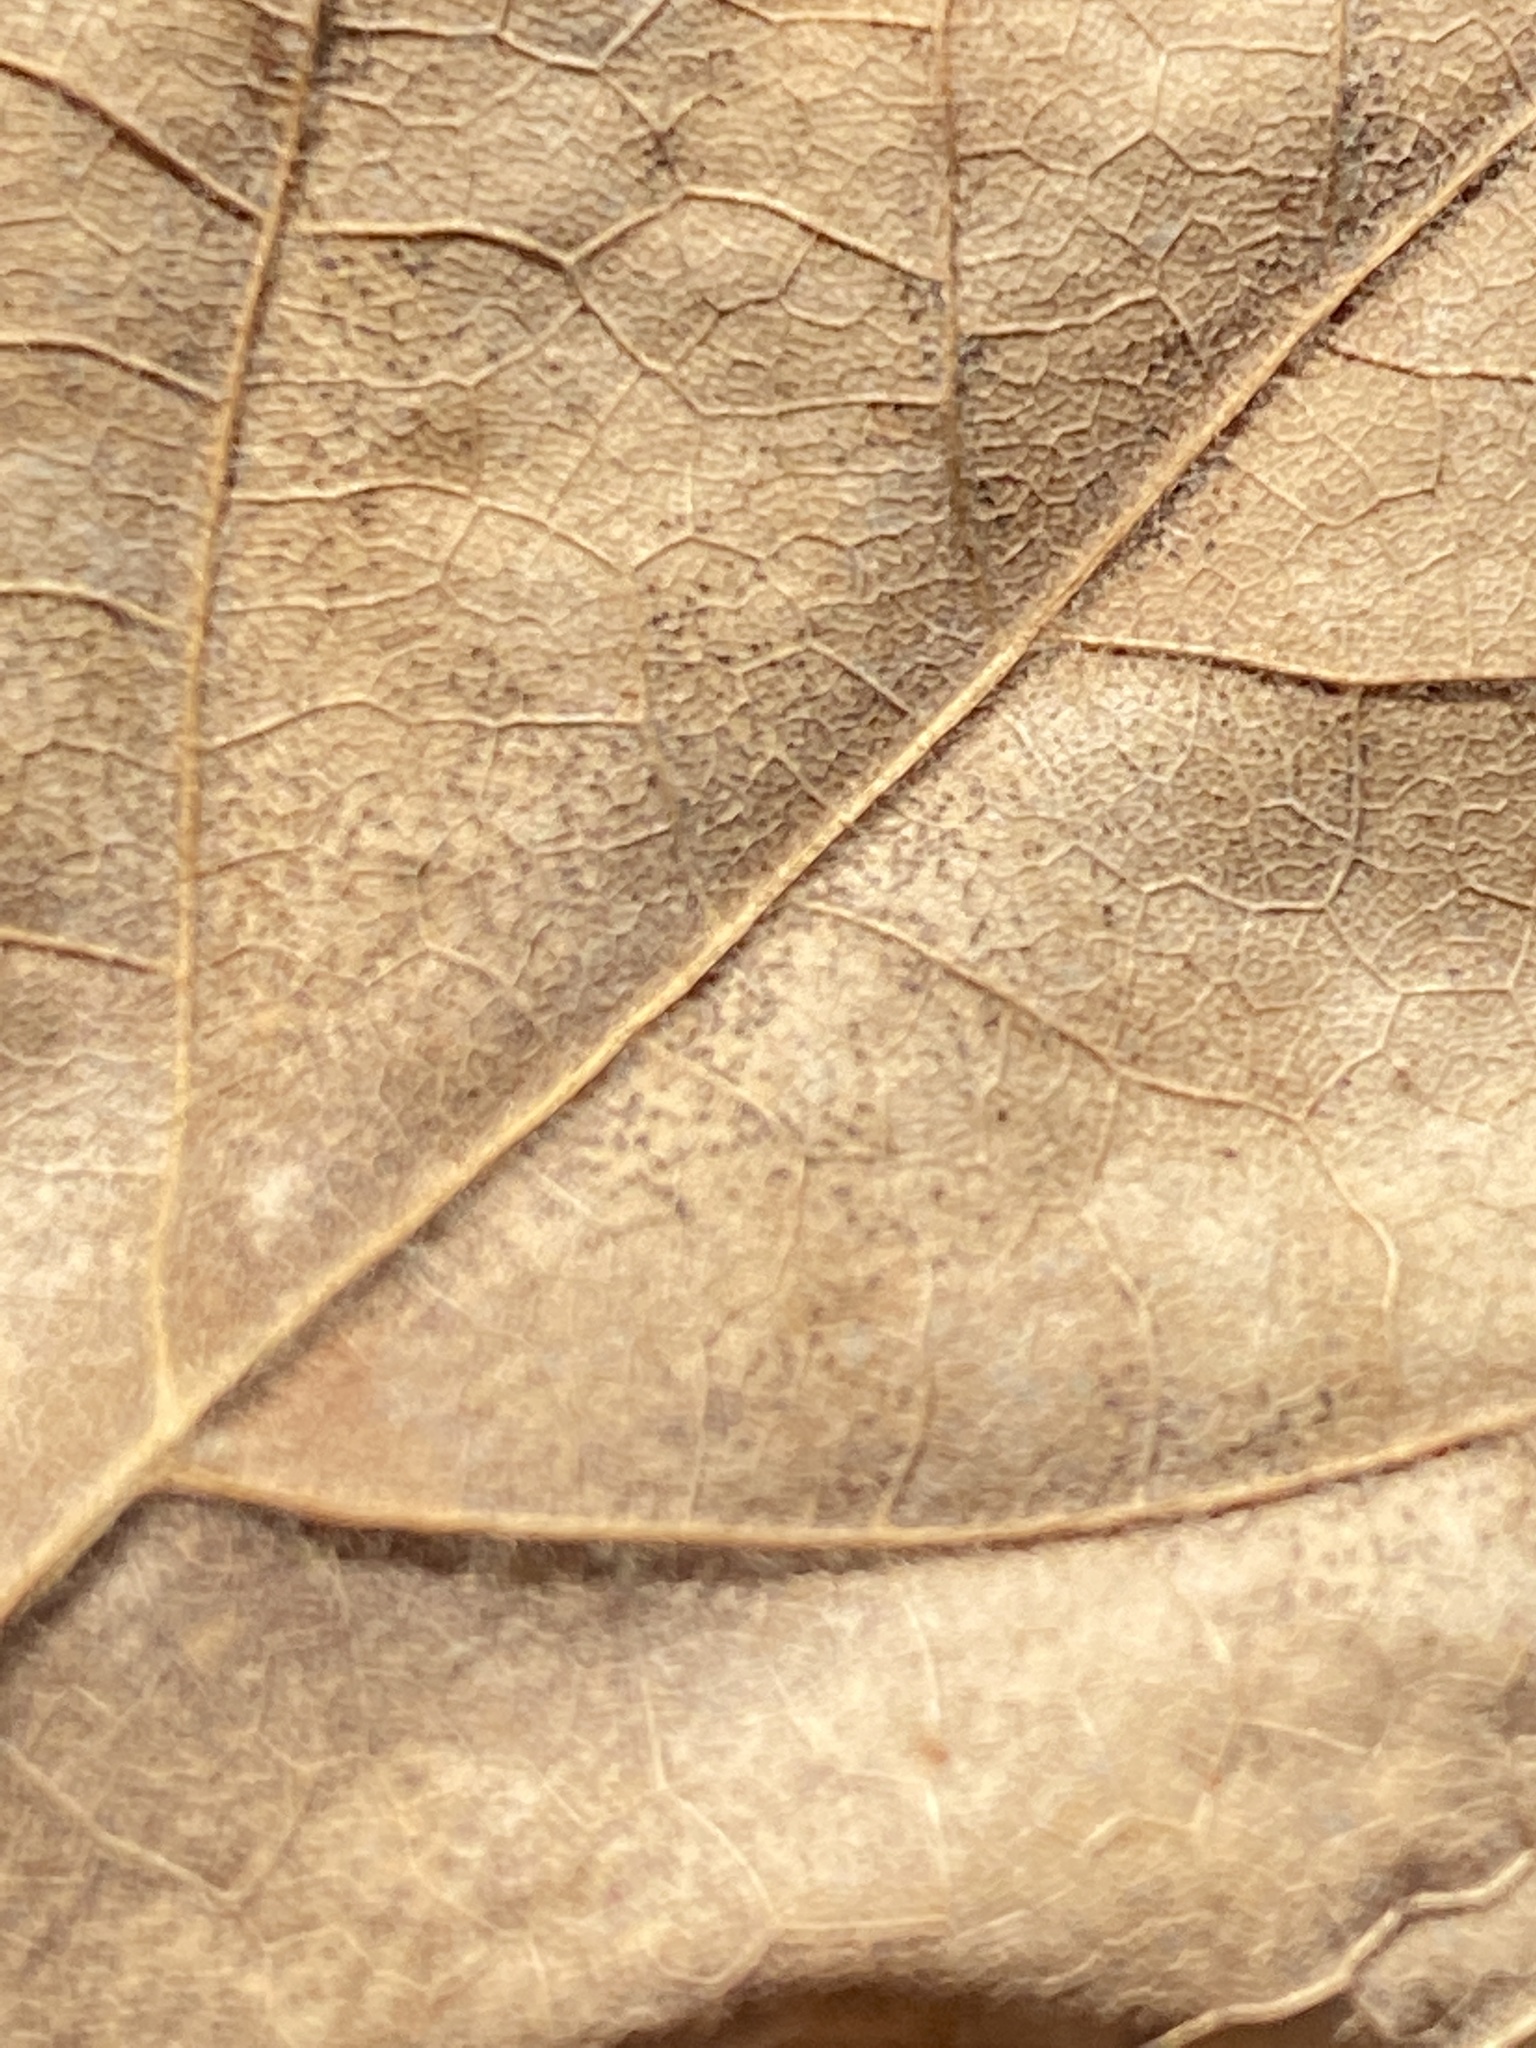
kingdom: Plantae
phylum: Tracheophyta
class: Magnoliopsida
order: Sapindales
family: Sapindaceae
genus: Acer
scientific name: Acer floridanum
